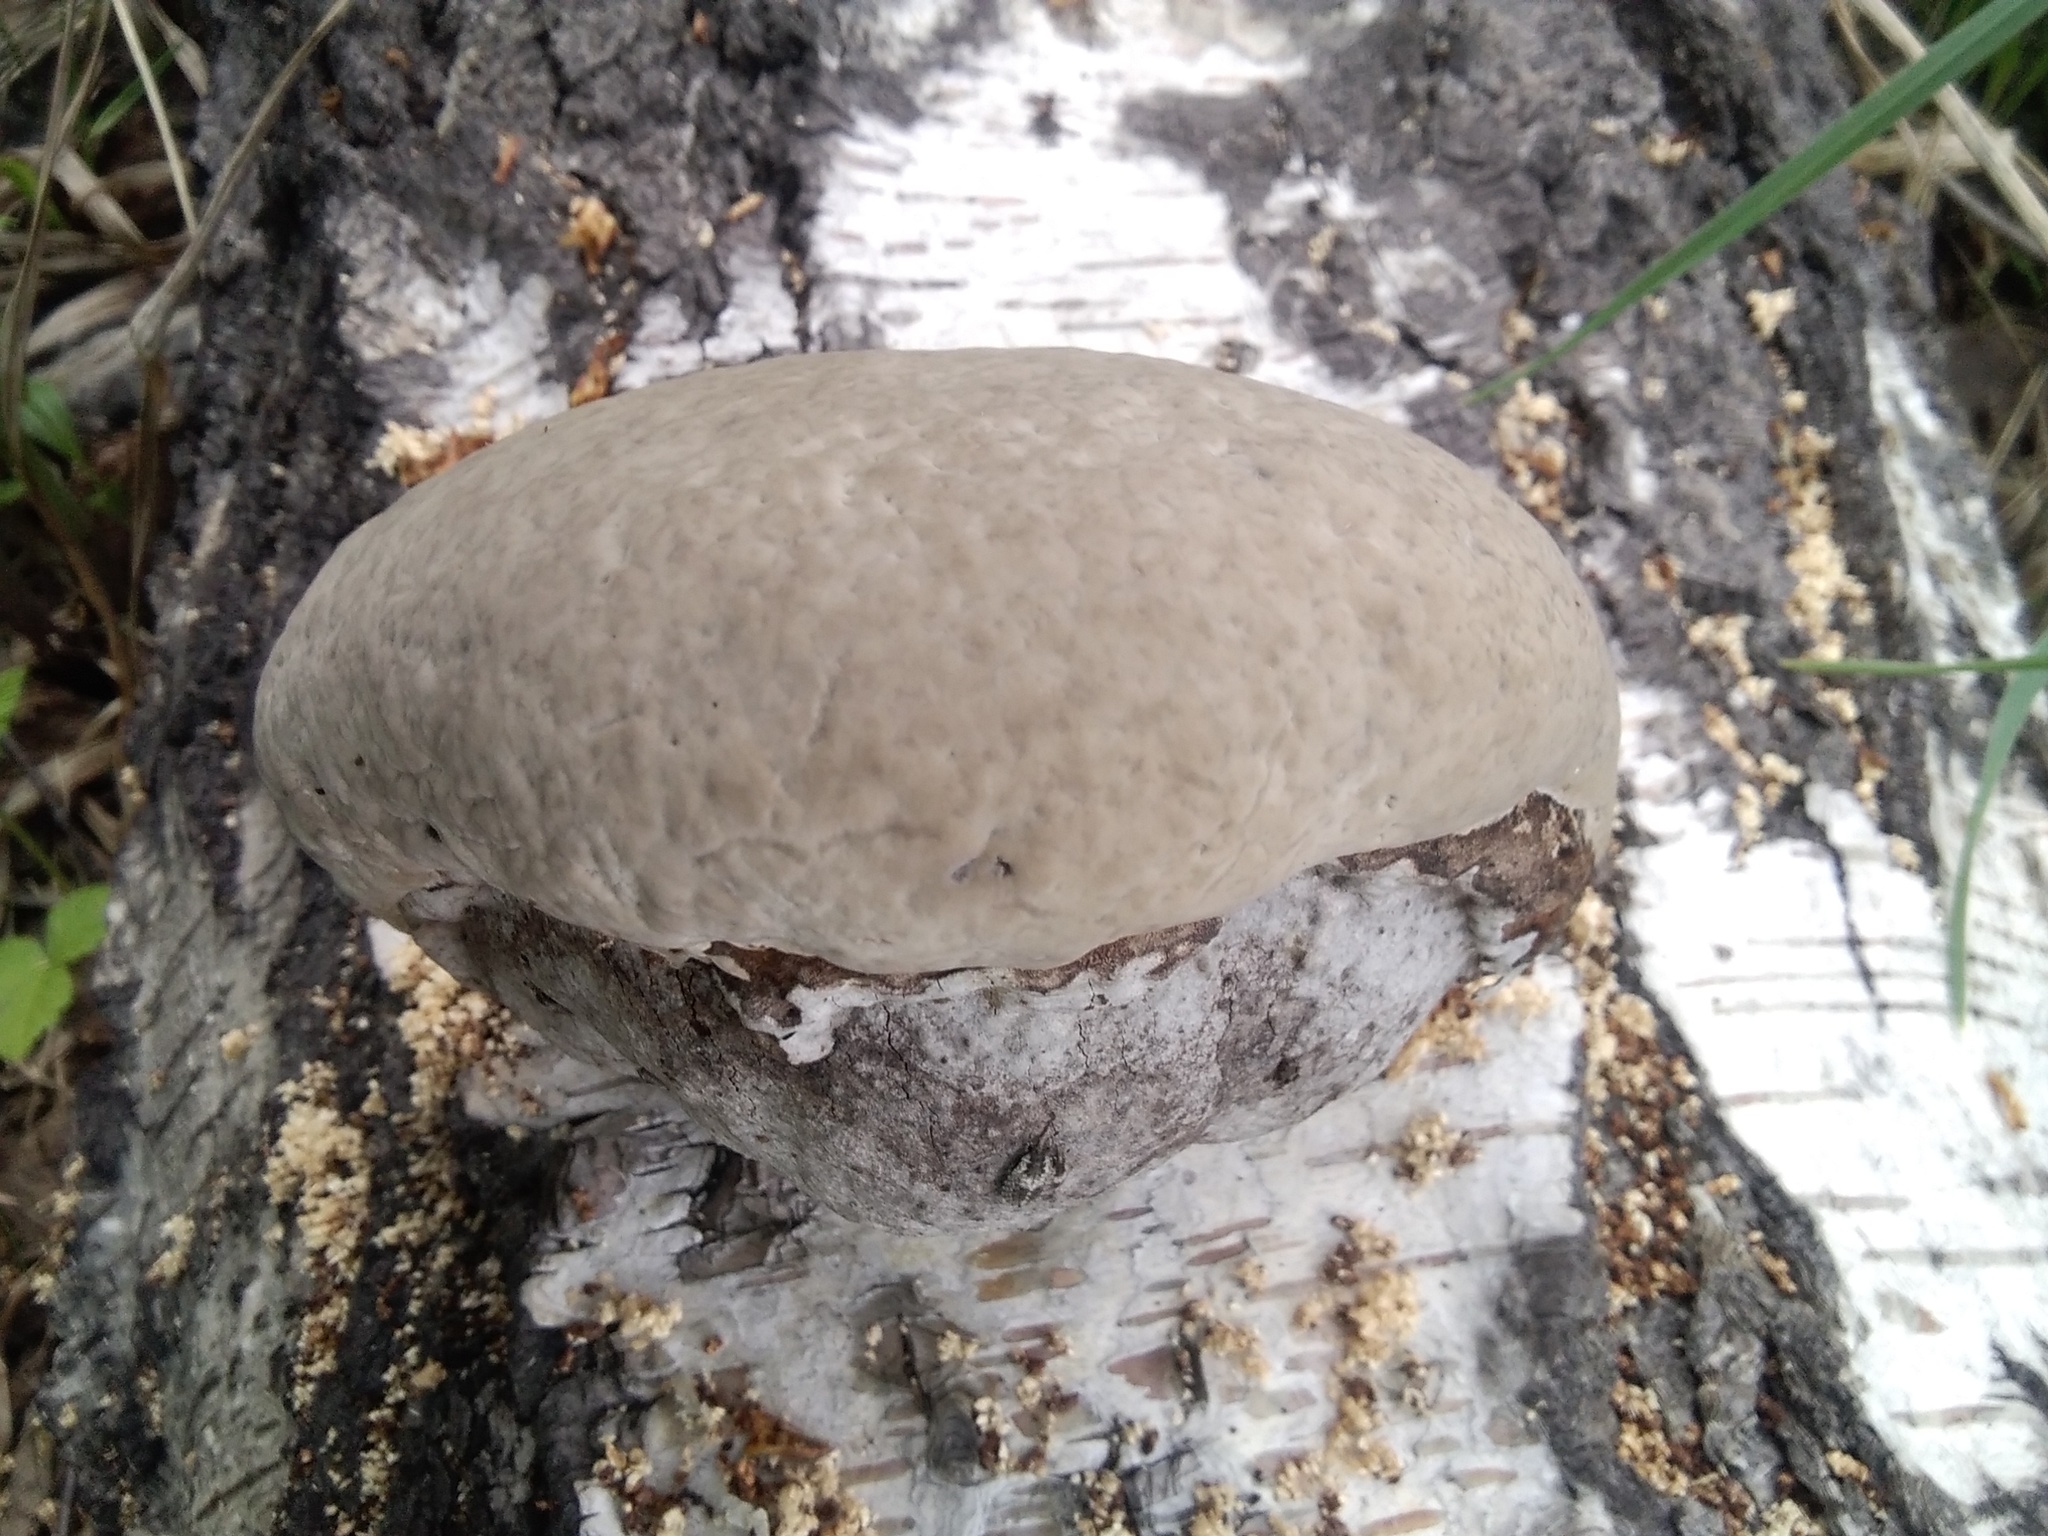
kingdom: Fungi
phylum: Basidiomycota
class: Agaricomycetes
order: Polyporales
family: Polyporaceae
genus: Fomes
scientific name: Fomes fomentarius
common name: Hoof fungus
